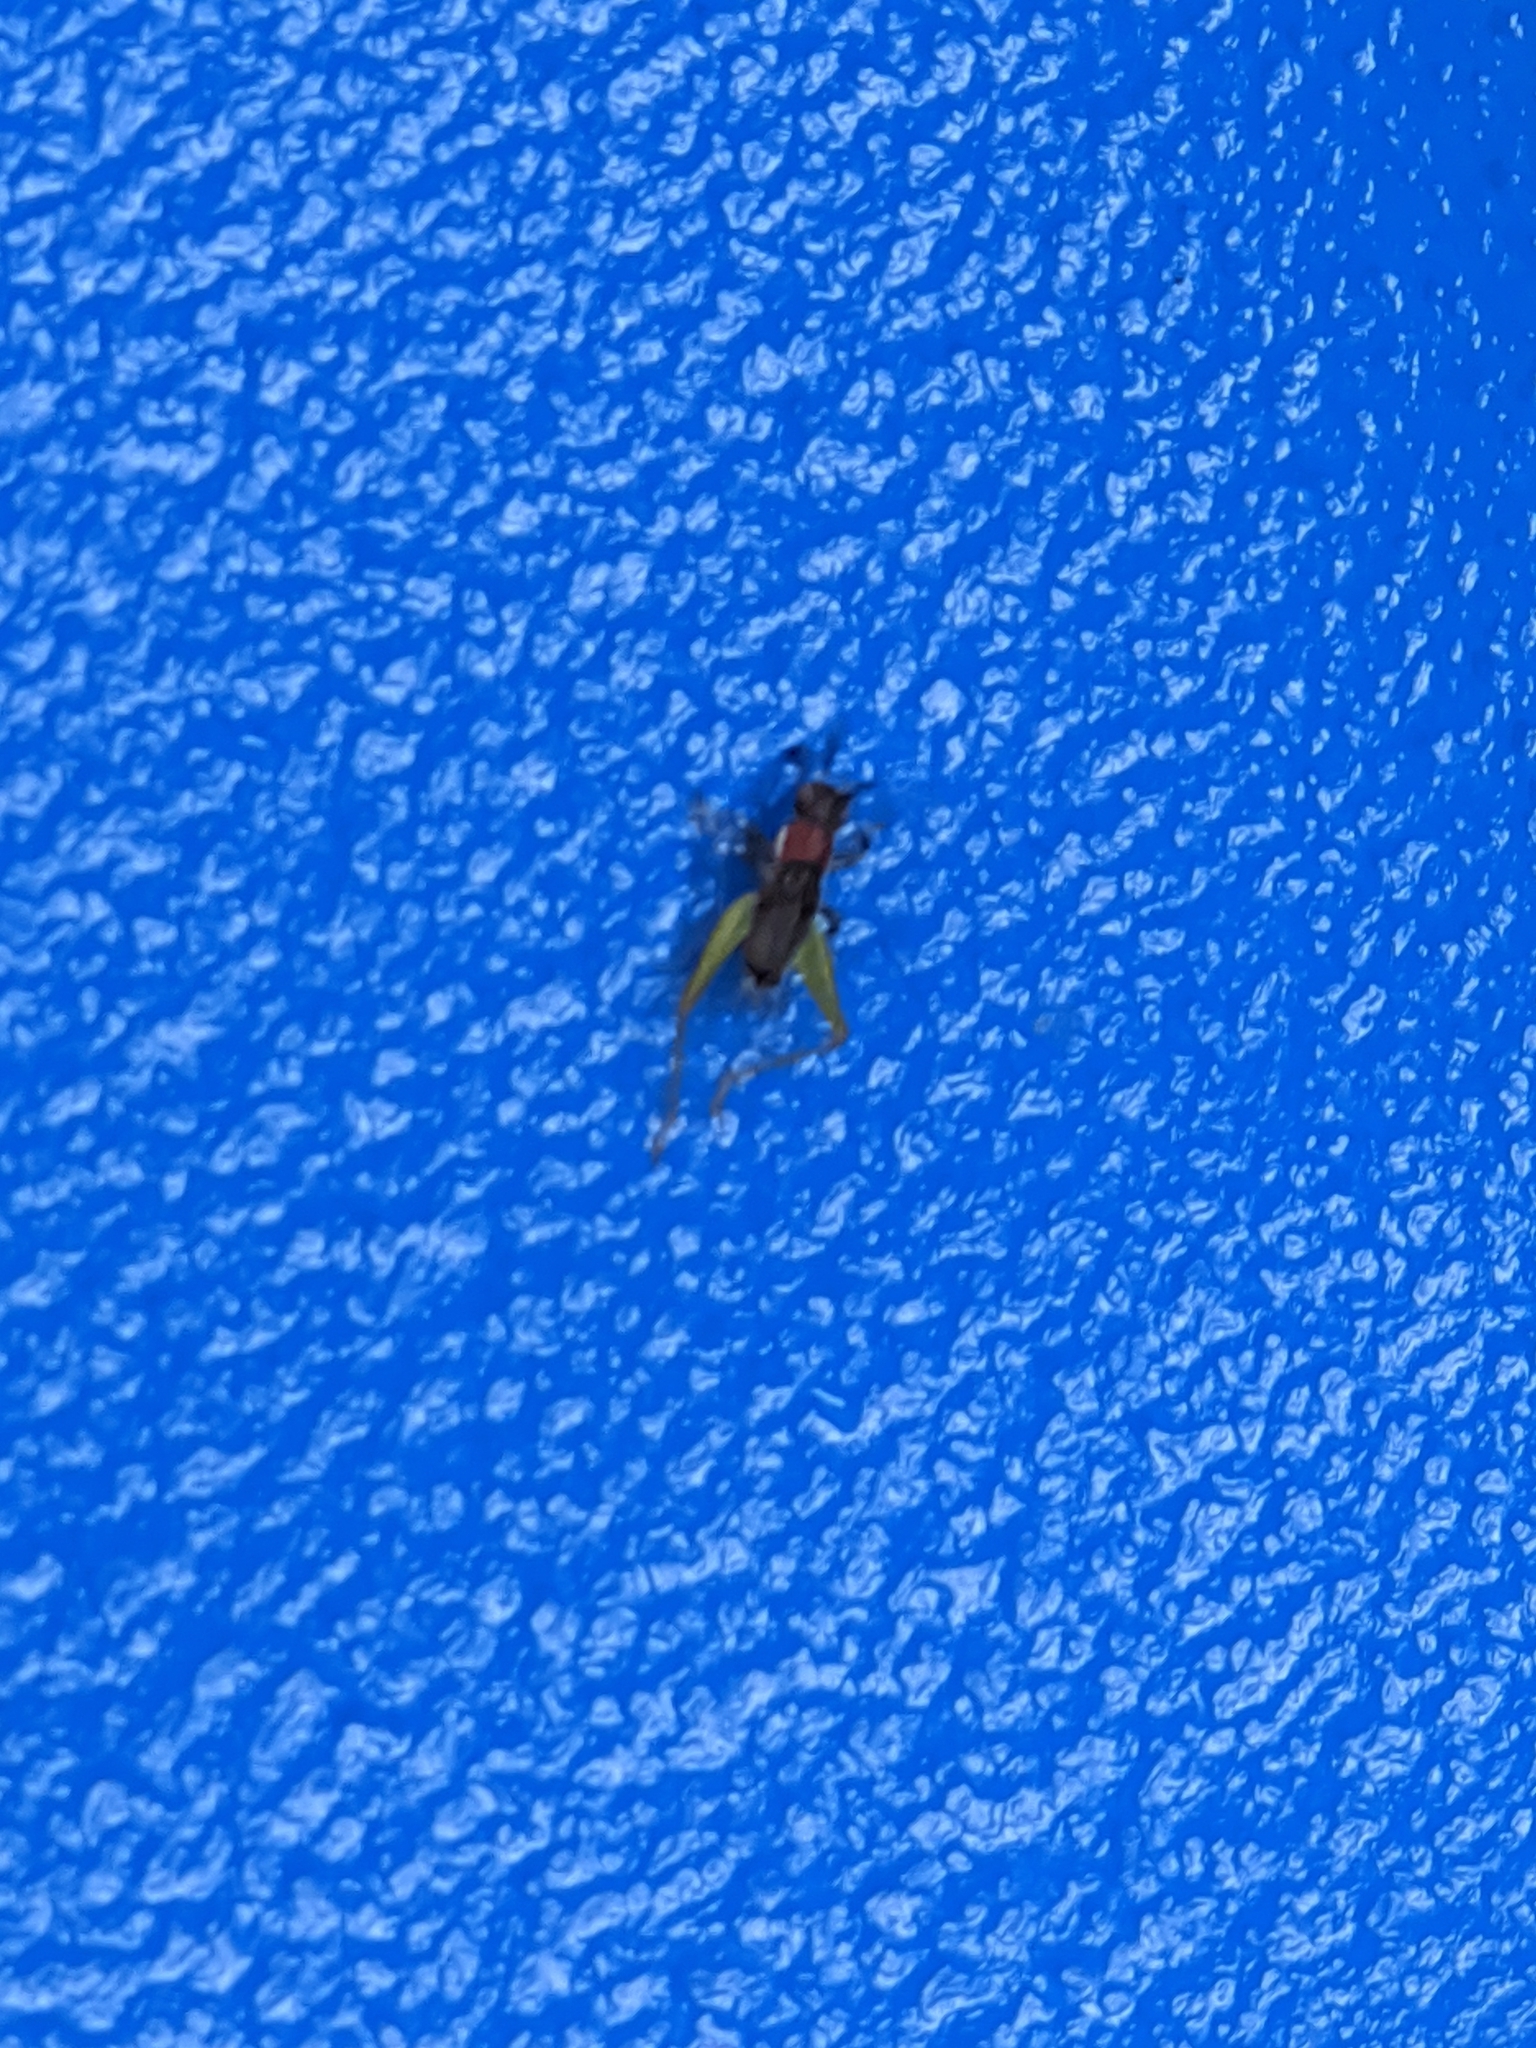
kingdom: Animalia
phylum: Arthropoda
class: Insecta
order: Orthoptera
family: Trigonidiidae
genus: Phyllopalpus
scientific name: Phyllopalpus pulchellus
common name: Handsome trig
